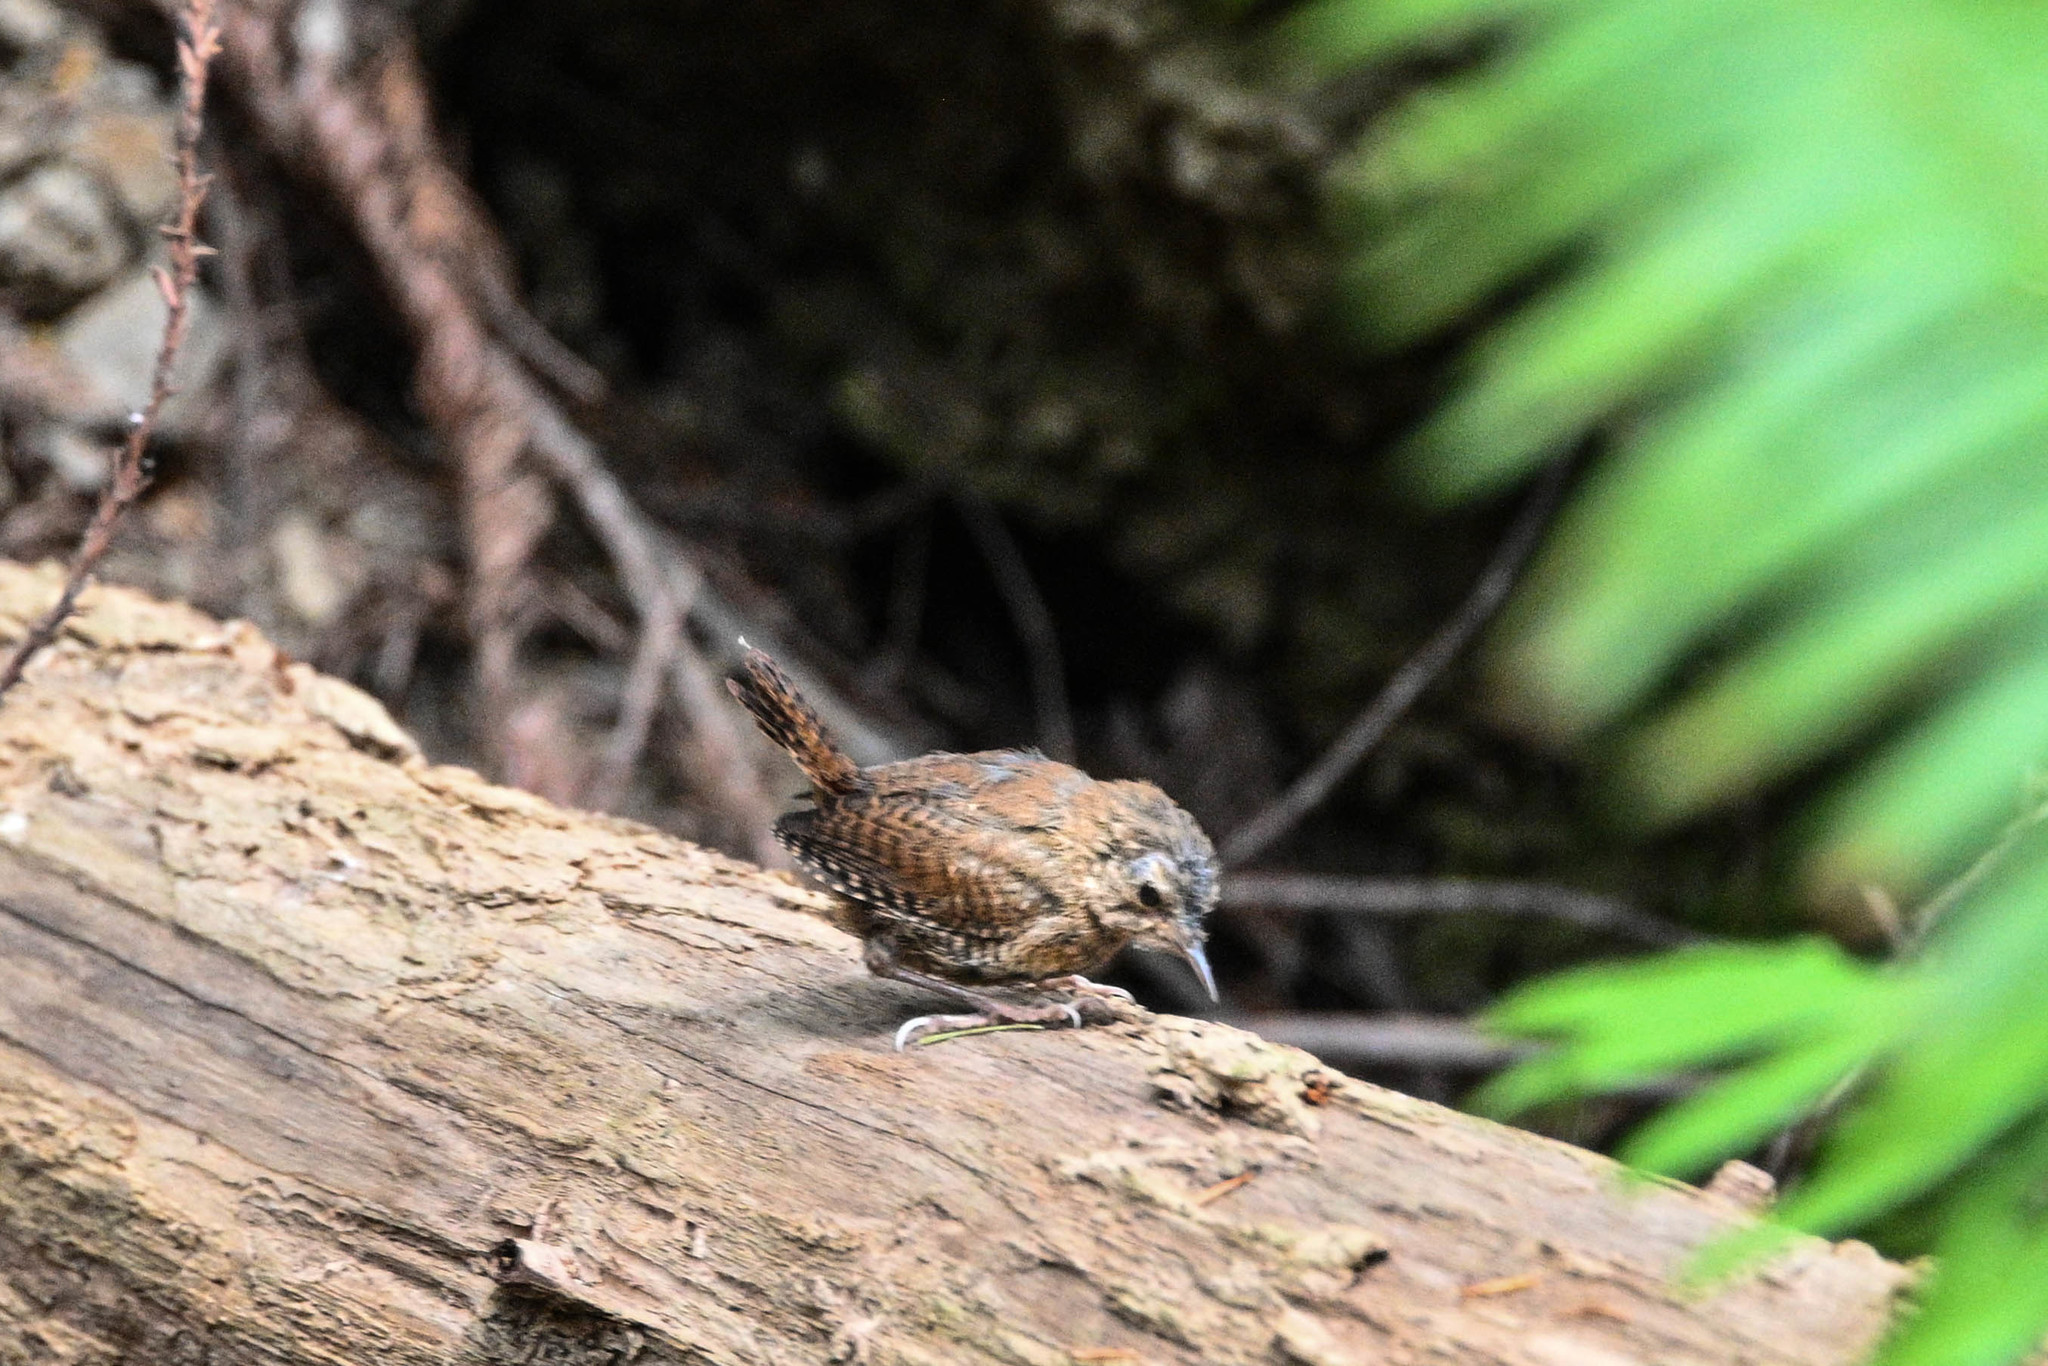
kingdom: Animalia
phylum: Chordata
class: Aves
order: Passeriformes
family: Troglodytidae
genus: Troglodytes
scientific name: Troglodytes pacificus
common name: Pacific wren
